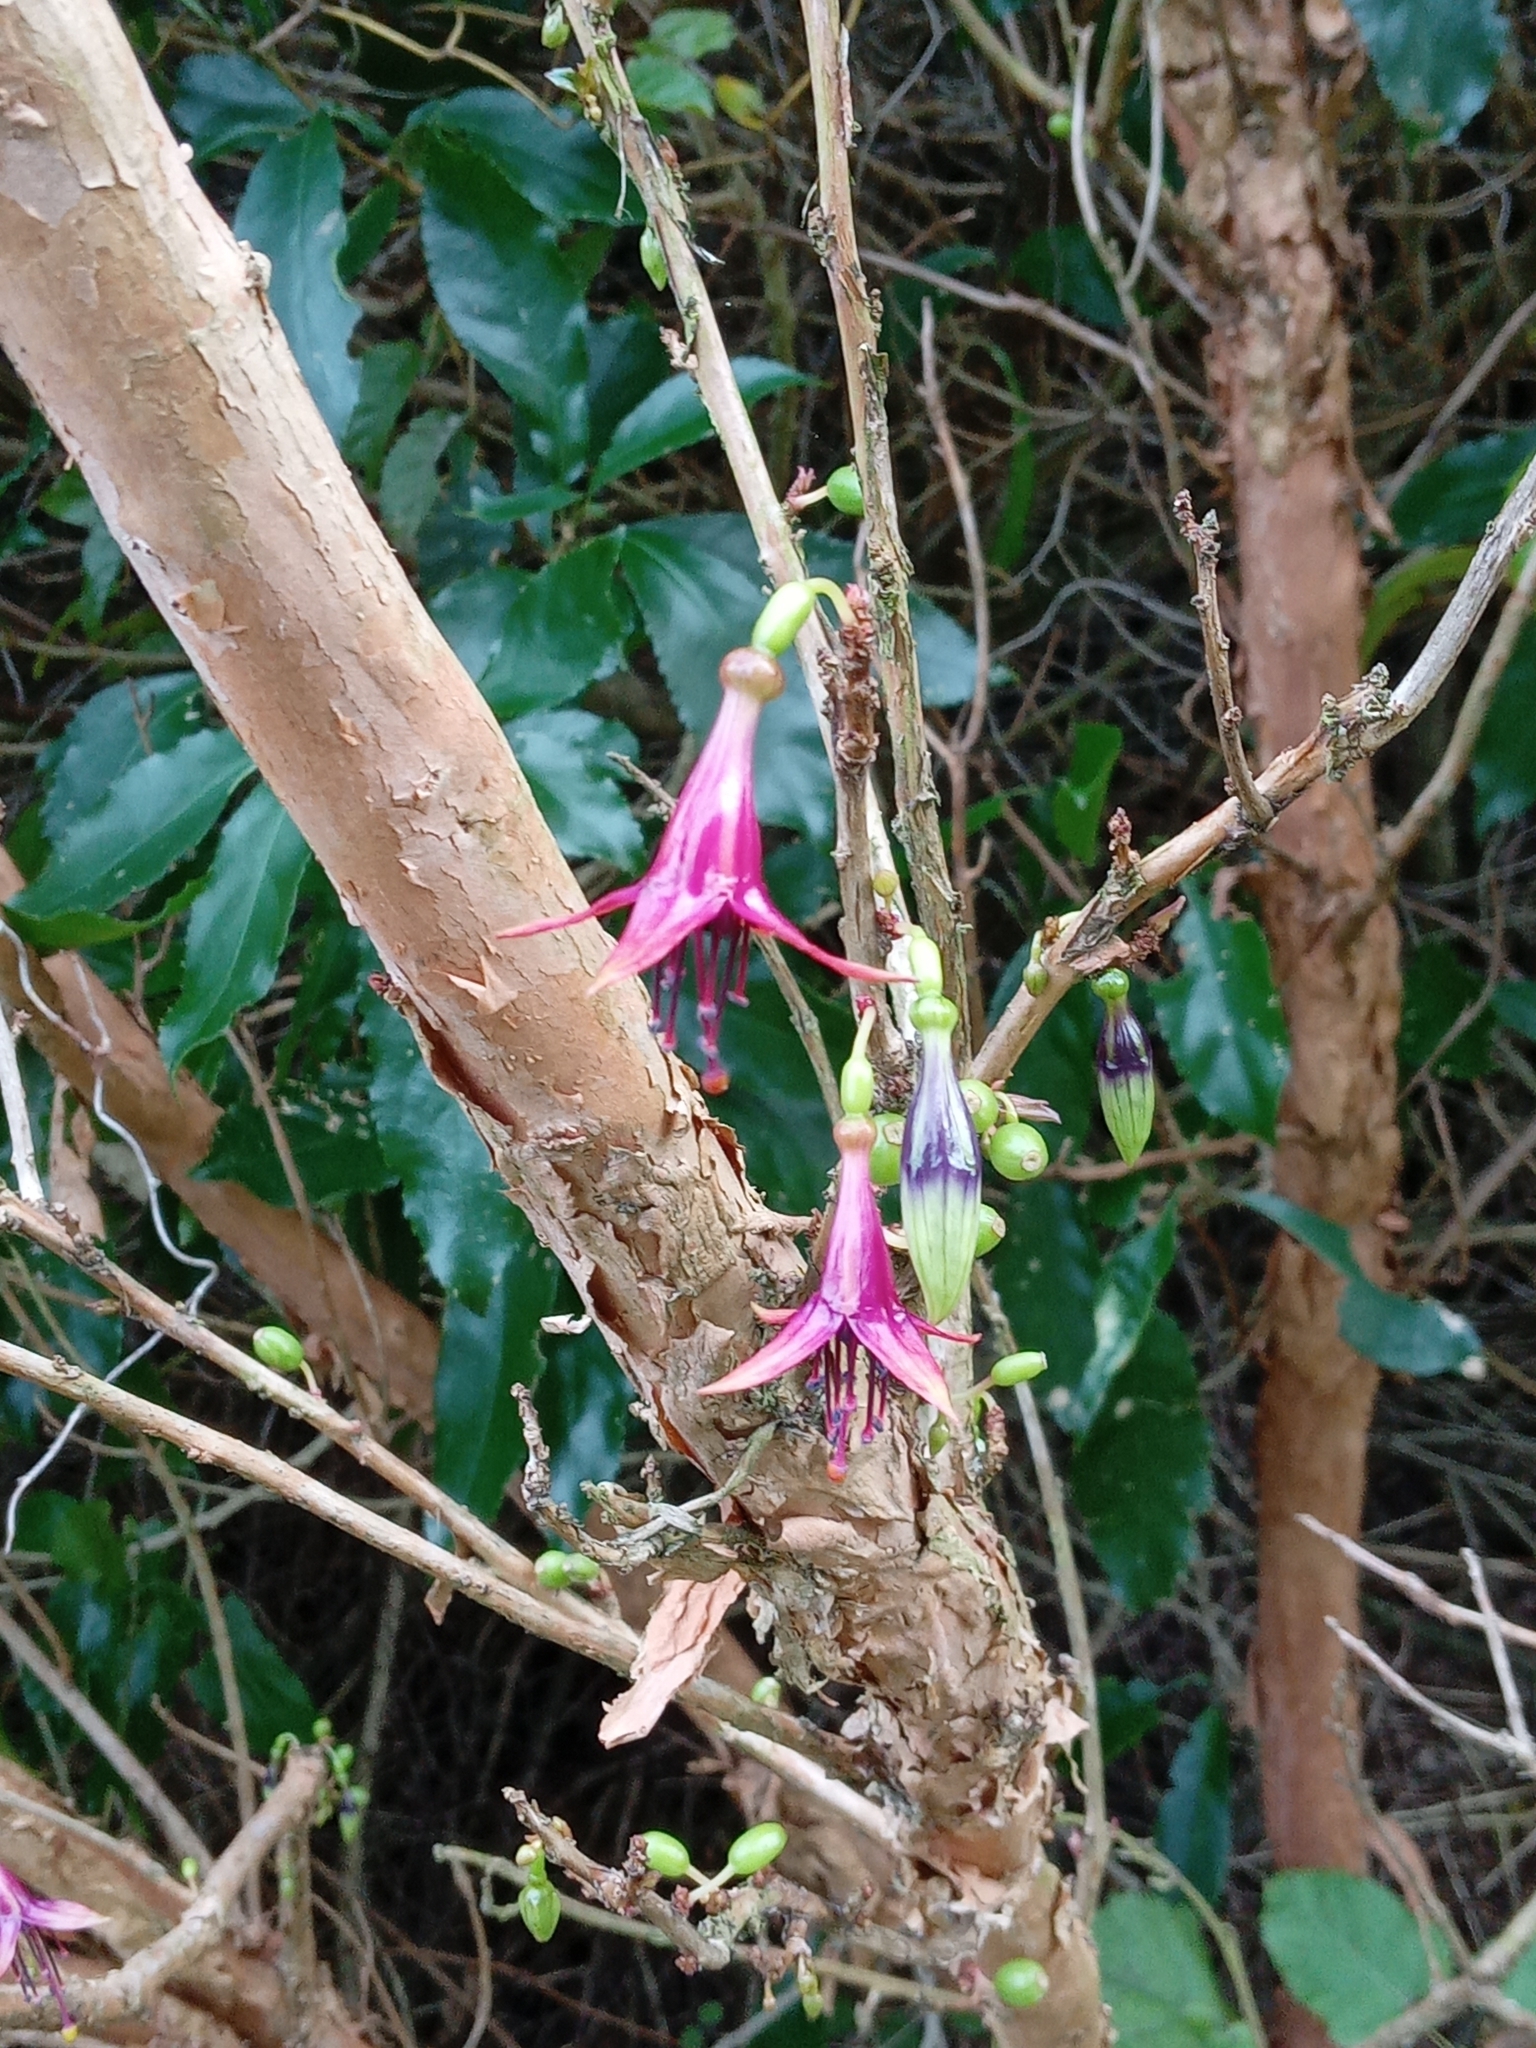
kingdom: Plantae
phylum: Tracheophyta
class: Magnoliopsida
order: Myrtales
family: Onagraceae
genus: Fuchsia
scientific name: Fuchsia excorticata
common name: Tree fuchsia
